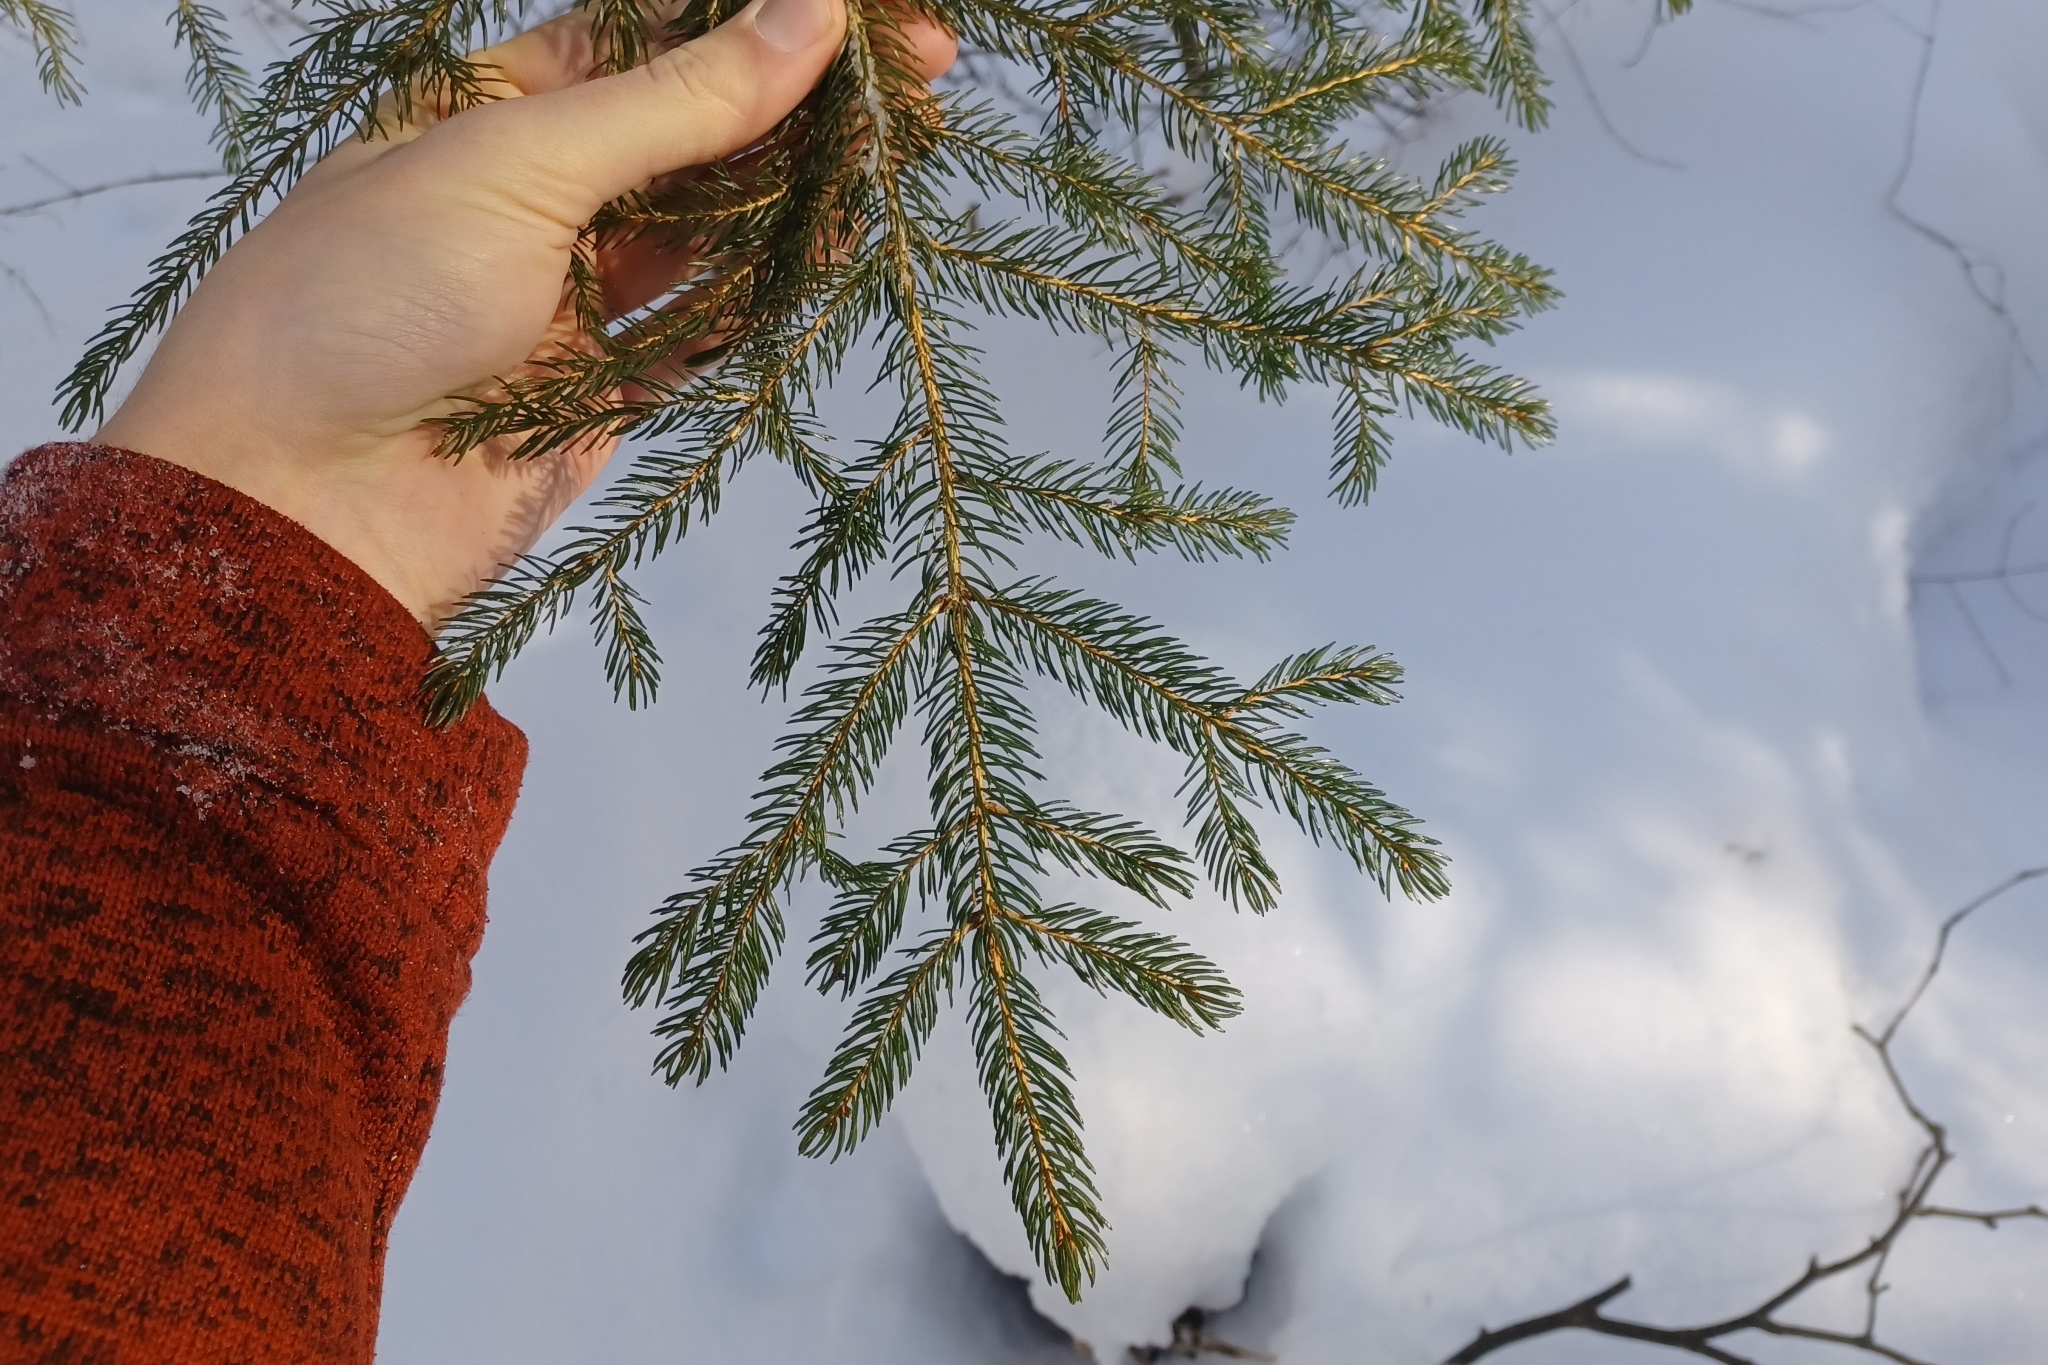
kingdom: Plantae
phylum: Tracheophyta
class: Pinopsida
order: Pinales
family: Pinaceae
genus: Picea
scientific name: Picea rubens
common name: Red spruce
